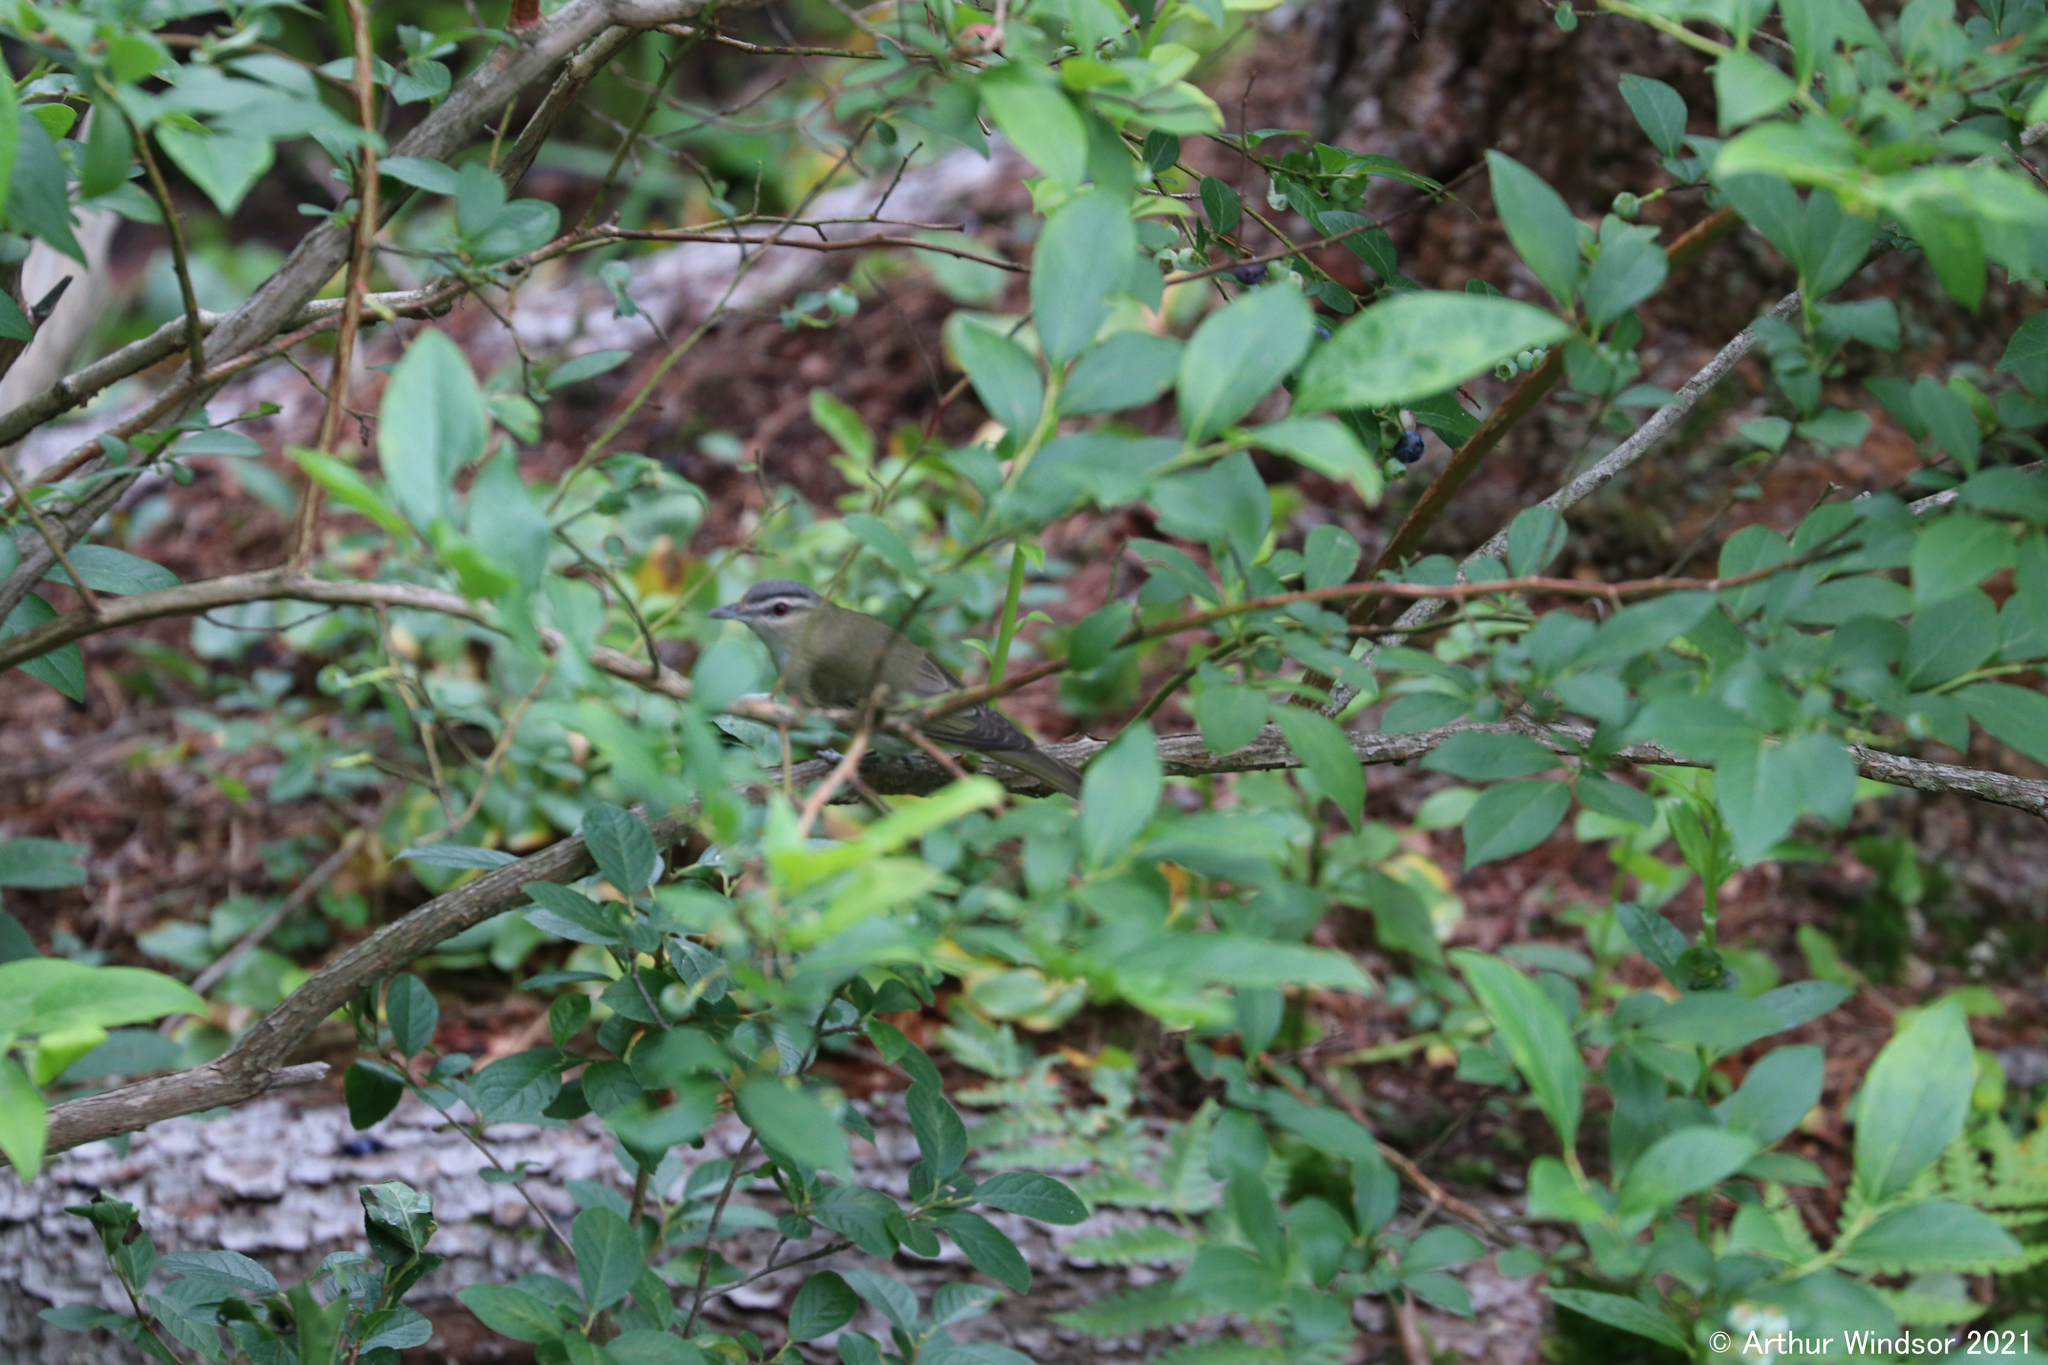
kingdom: Animalia
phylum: Chordata
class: Aves
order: Passeriformes
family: Vireonidae
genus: Vireo
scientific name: Vireo olivaceus
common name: Red-eyed vireo
